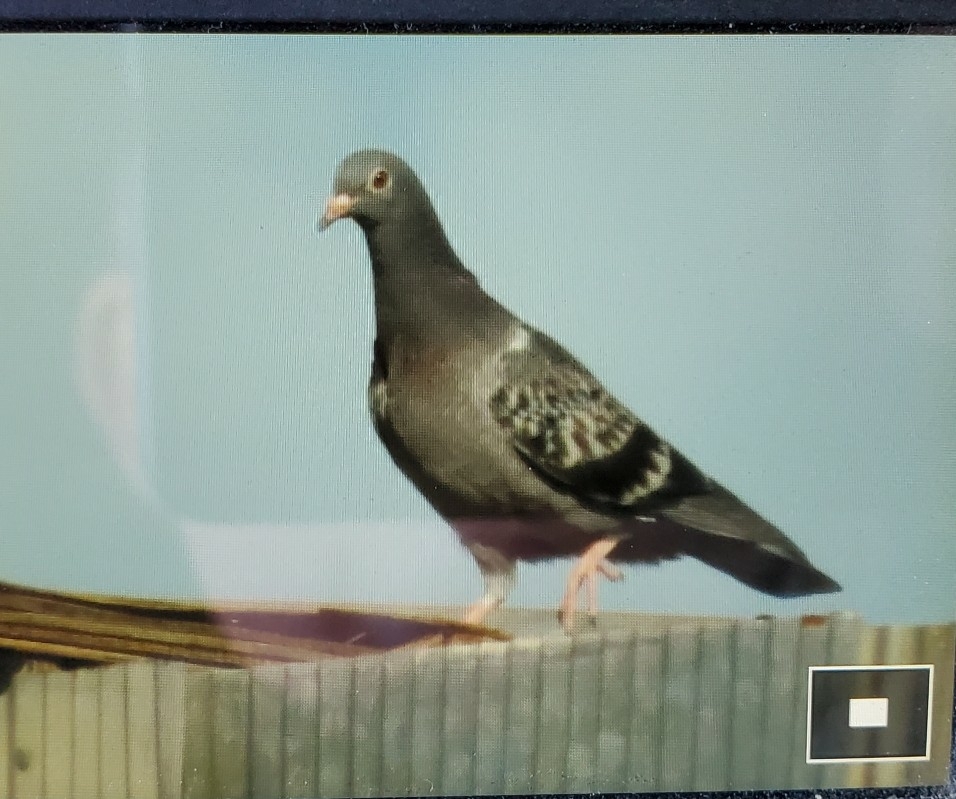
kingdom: Animalia
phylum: Chordata
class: Aves
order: Columbiformes
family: Columbidae
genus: Columba
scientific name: Columba livia
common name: Rock pigeon
